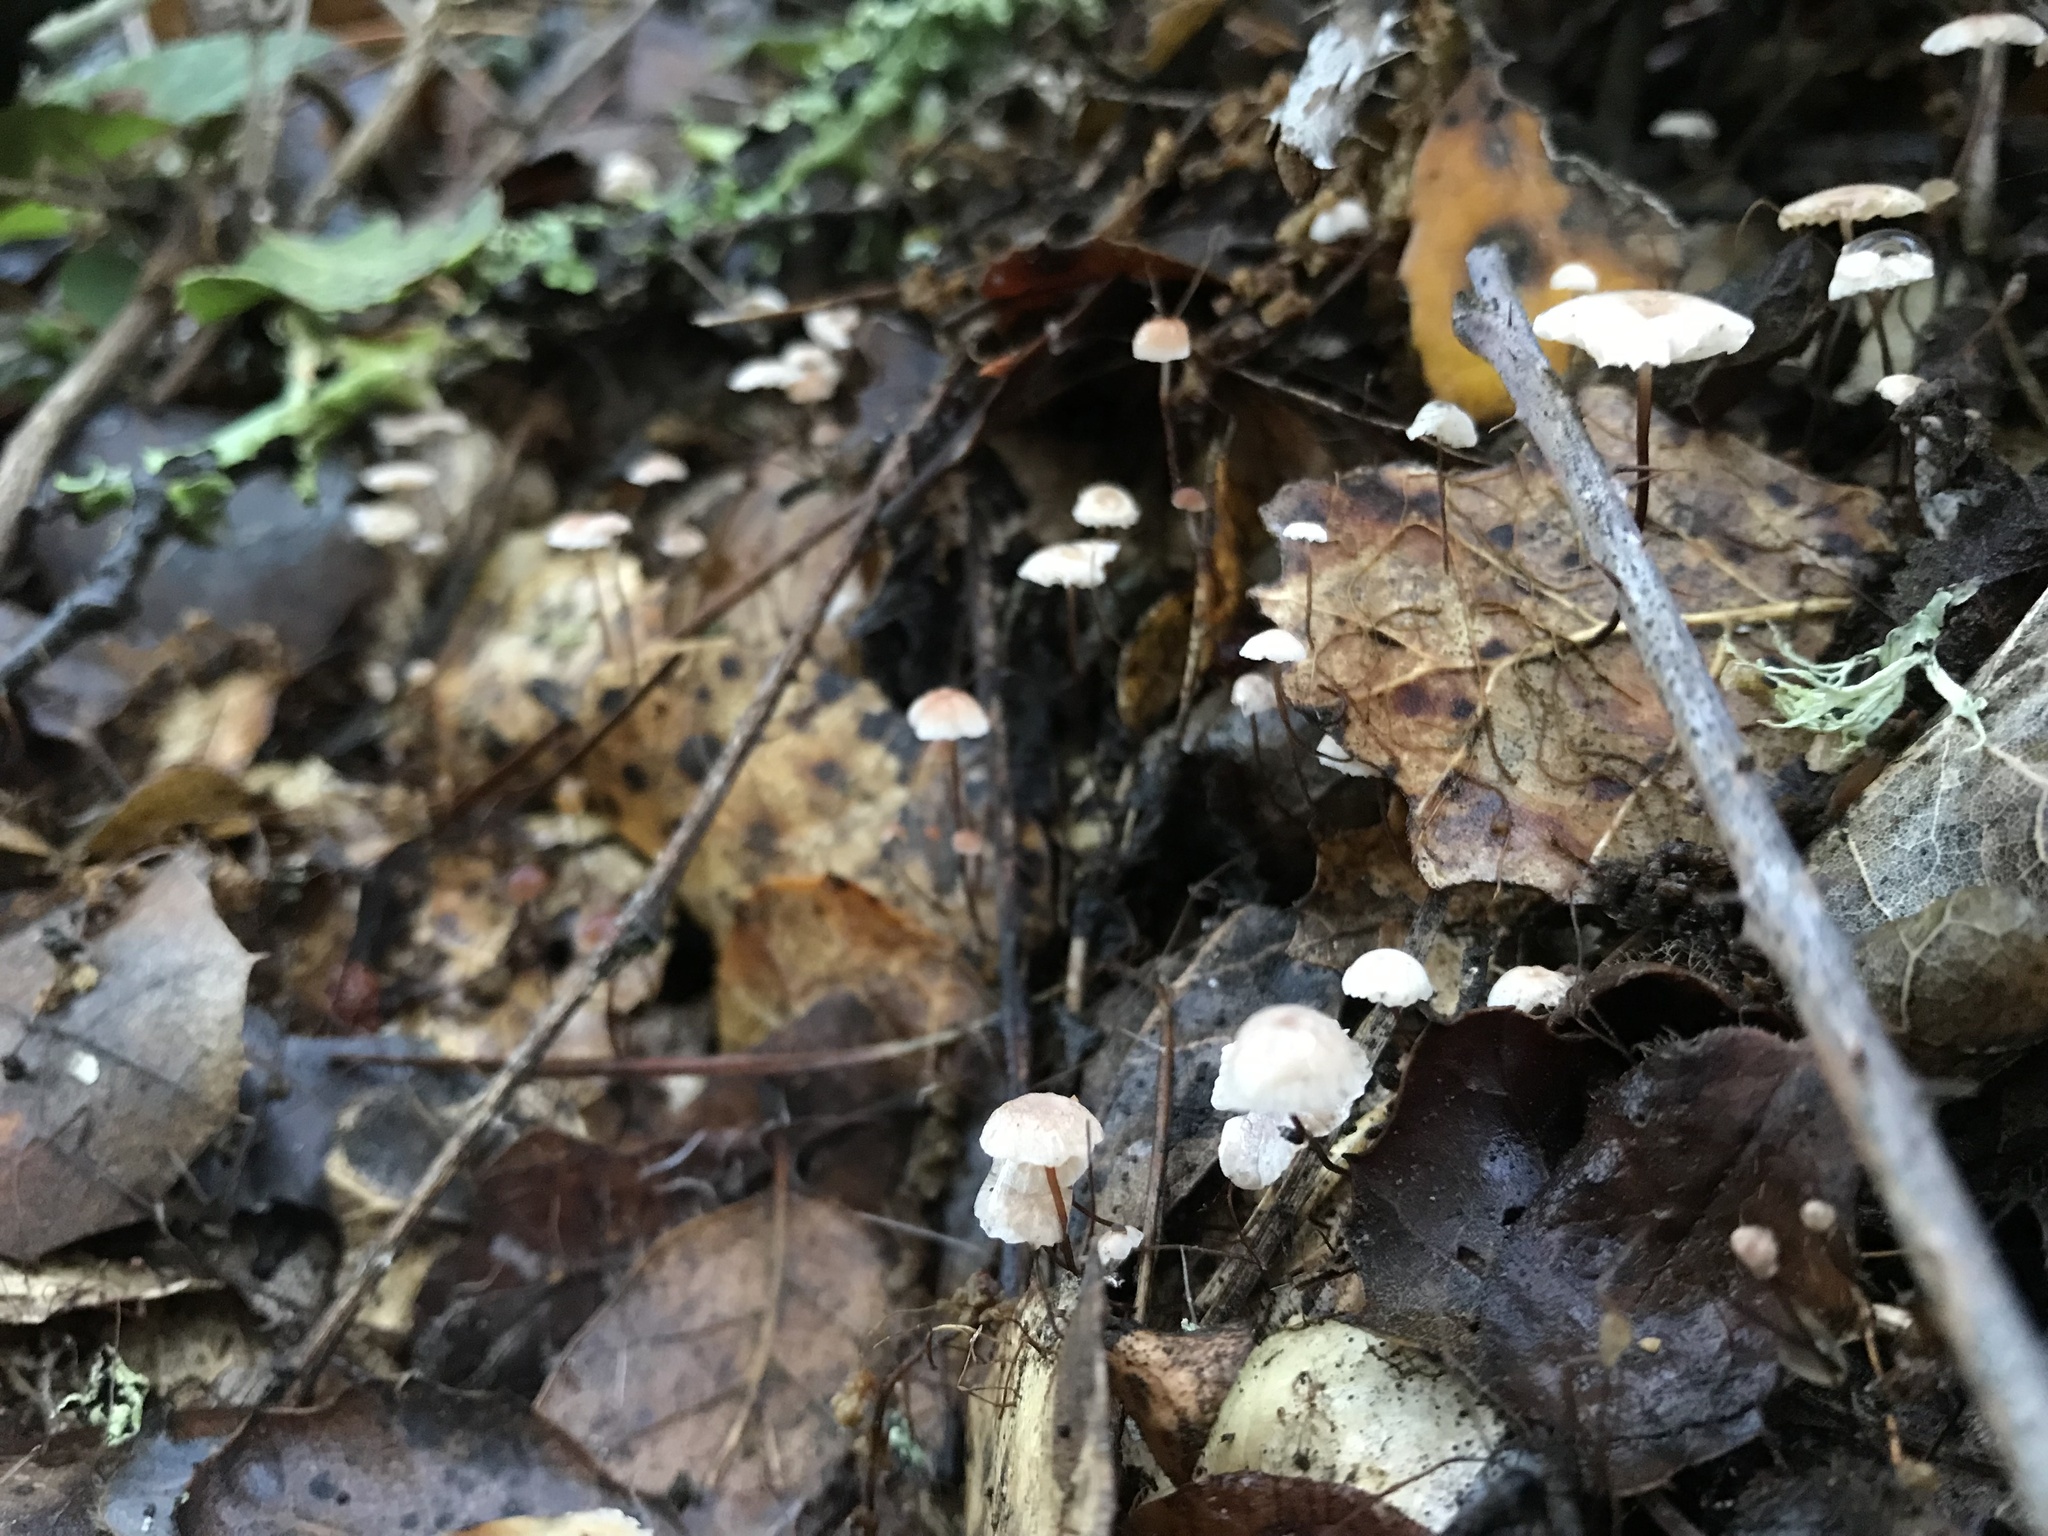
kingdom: Fungi
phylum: Basidiomycota
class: Agaricomycetes
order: Agaricales
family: Omphalotaceae
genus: Collybiopsis
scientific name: Collybiopsis quercophila
